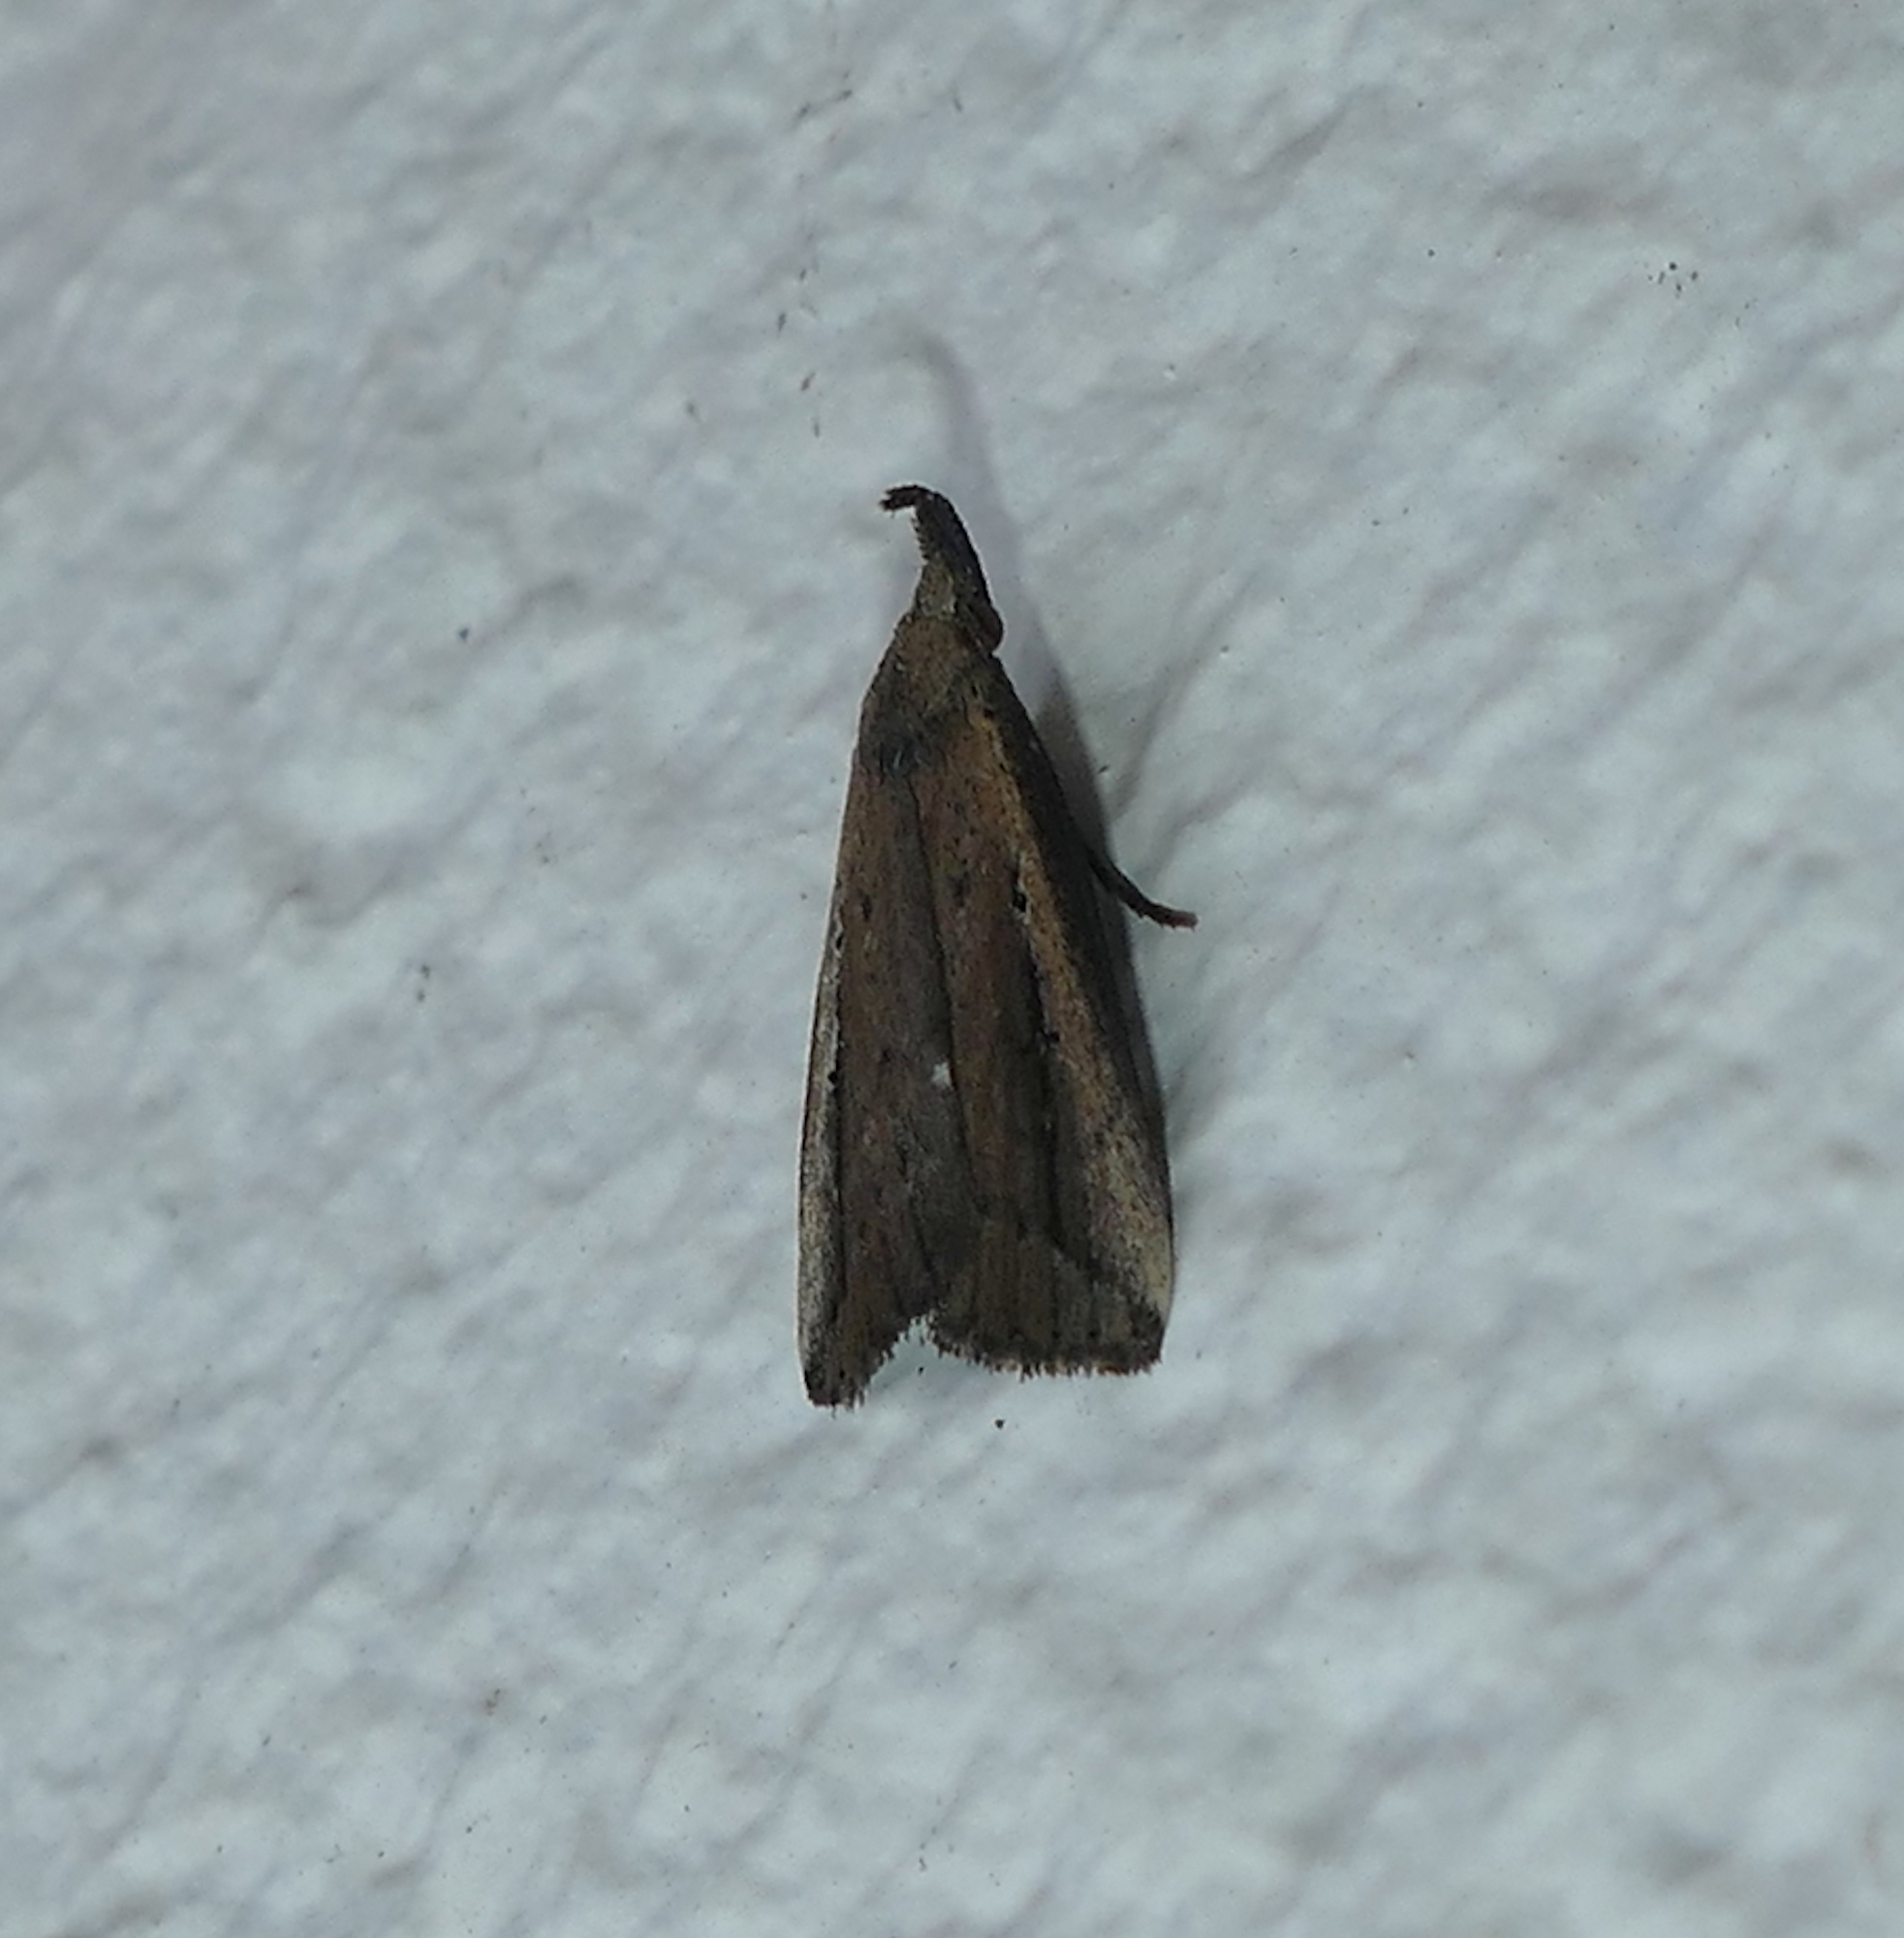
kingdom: Animalia
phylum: Arthropoda
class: Insecta
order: Lepidoptera
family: Erebidae
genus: Macrochilo
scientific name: Macrochilo orciferalis
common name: Bronzy owlet
